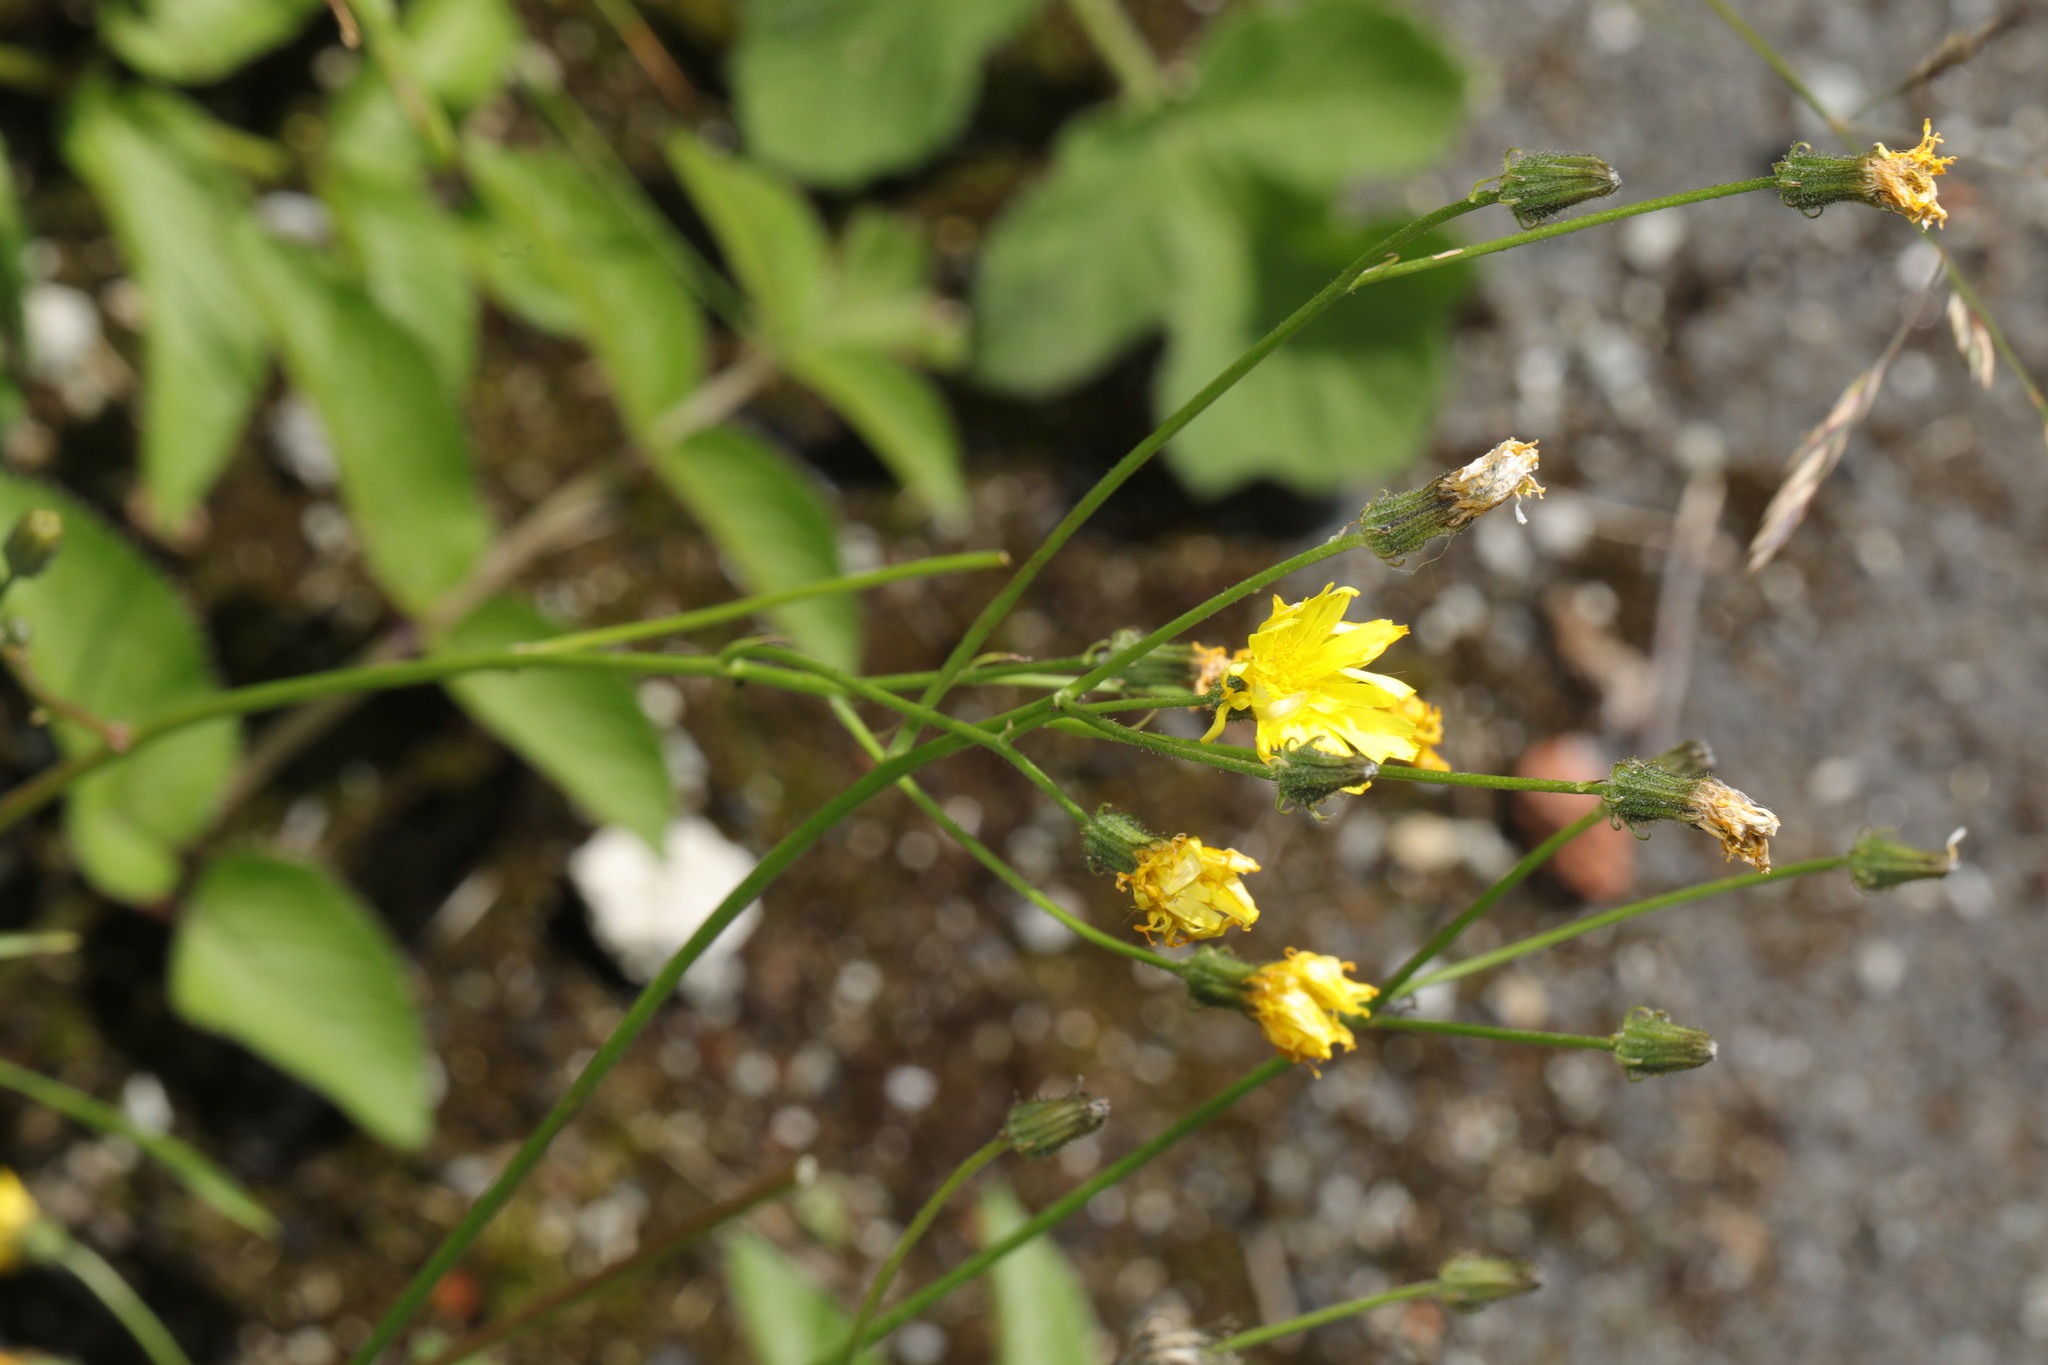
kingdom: Plantae
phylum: Tracheophyta
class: Magnoliopsida
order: Asterales
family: Asteraceae
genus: Crepis
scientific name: Crepis capillaris
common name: Smooth hawksbeard
